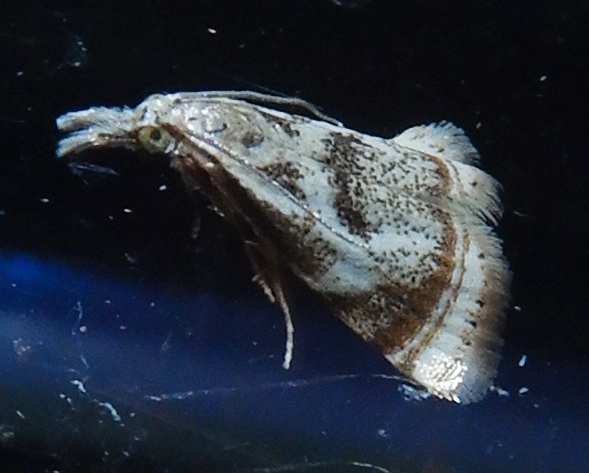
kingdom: Animalia
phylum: Arthropoda
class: Insecta
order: Lepidoptera
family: Crambidae
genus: Microcrambus
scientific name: Microcrambus elegans
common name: Elegant grass-veneer
